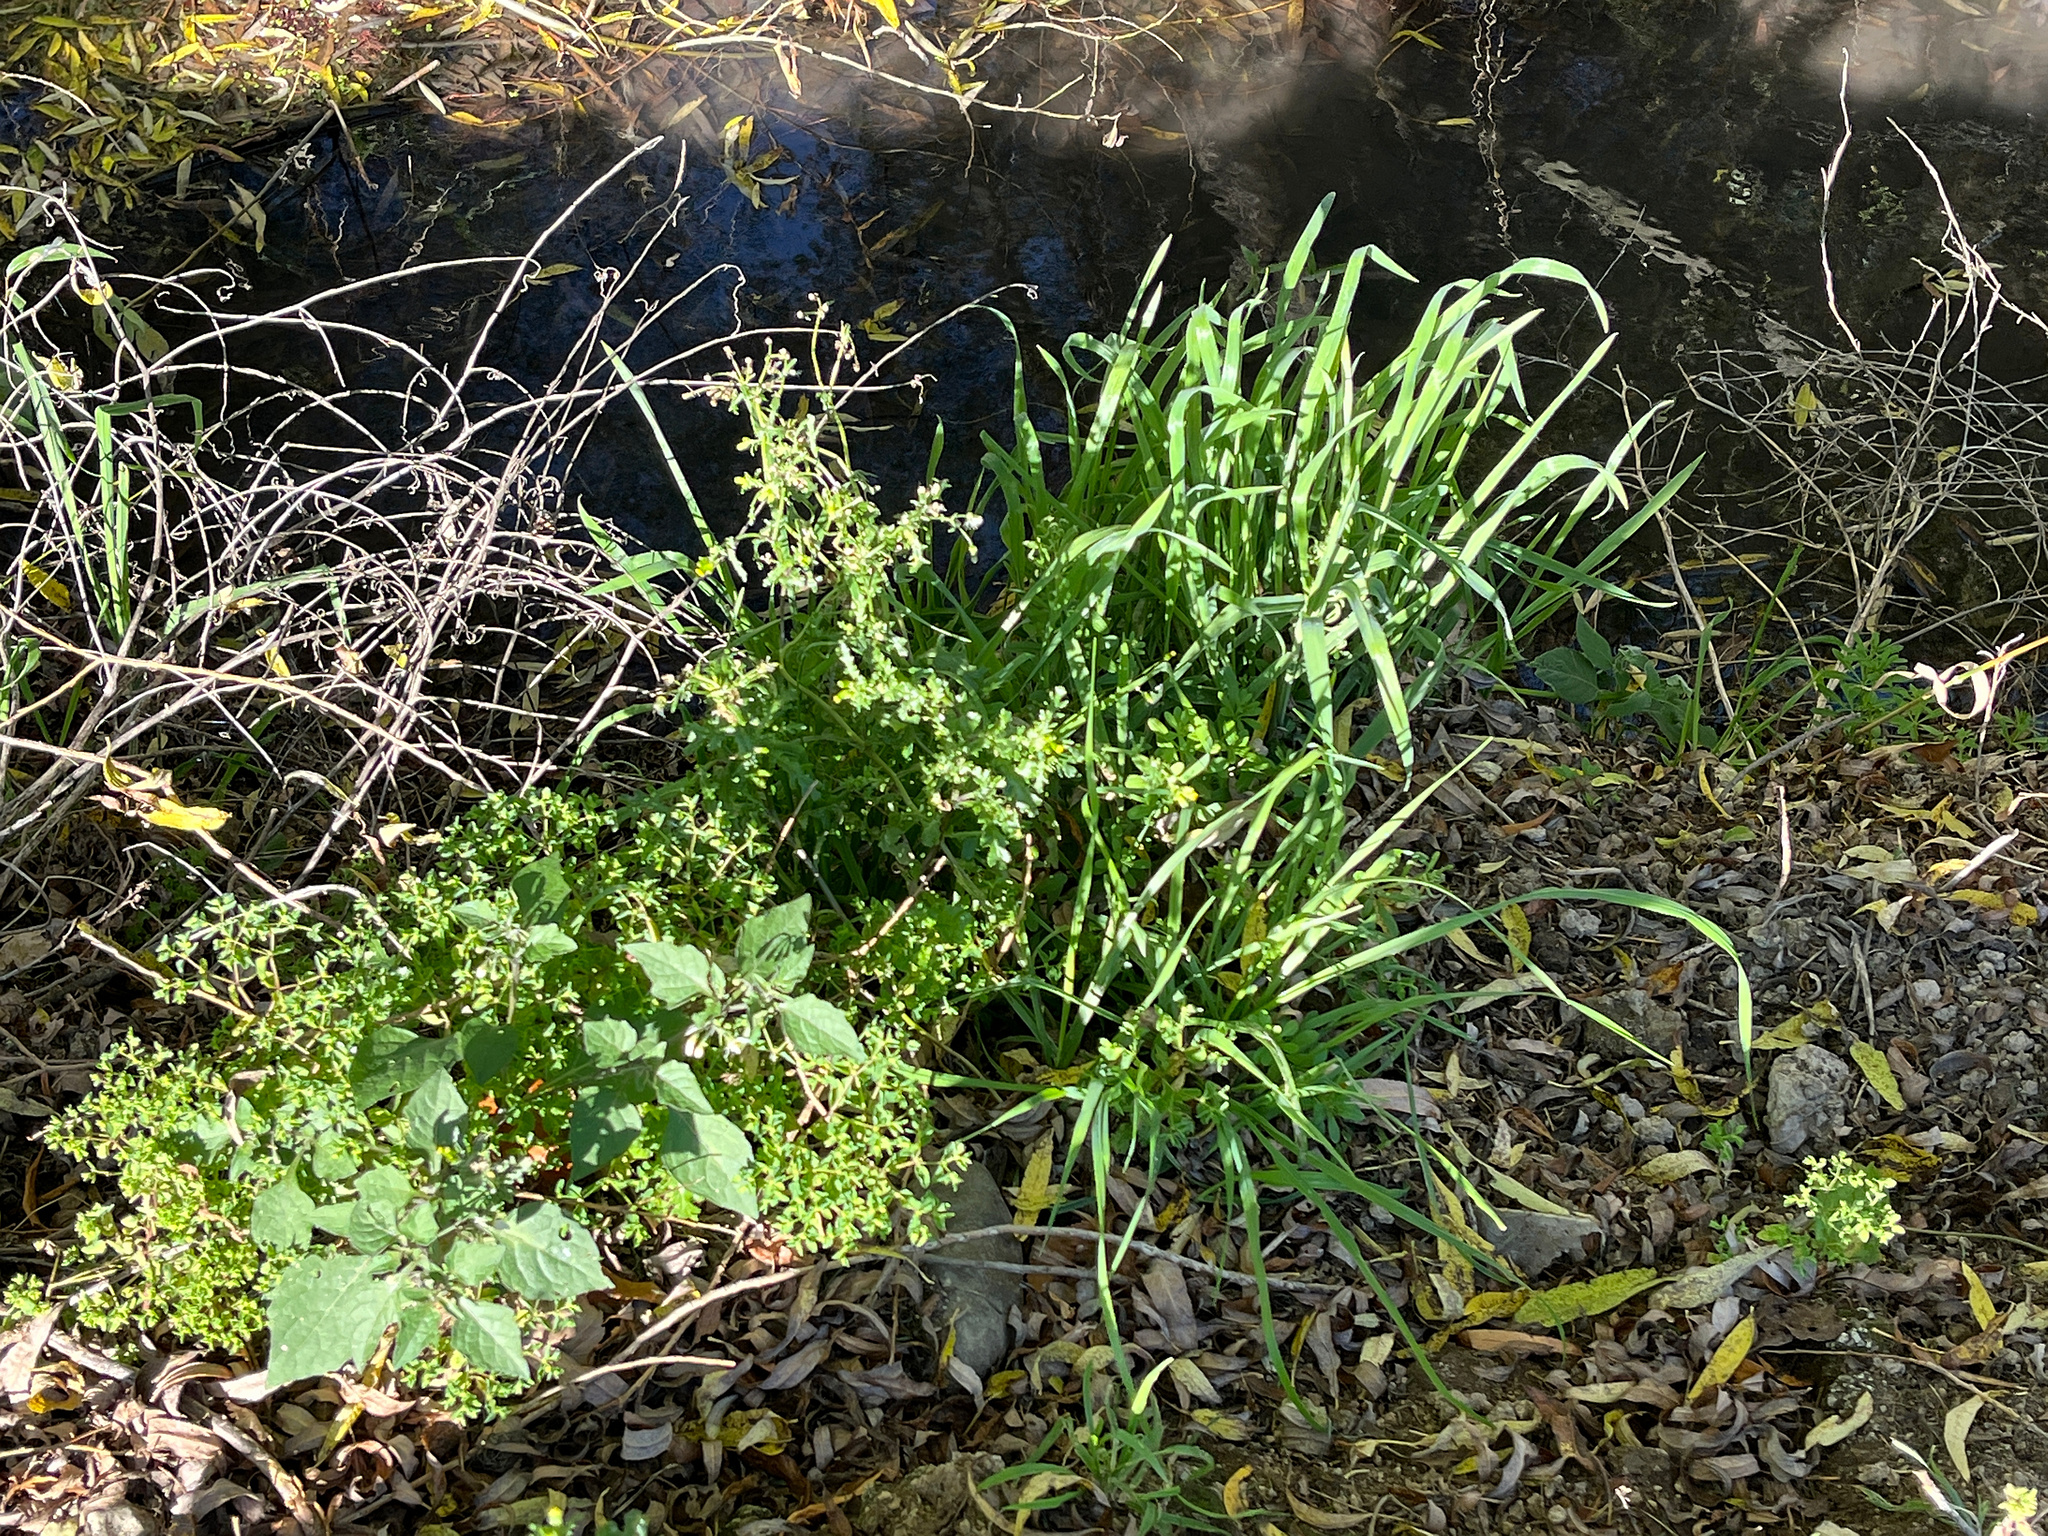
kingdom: Plantae
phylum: Tracheophyta
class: Magnoliopsida
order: Asterales
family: Asteraceae
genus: Senecio
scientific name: Senecio vulgaris
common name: Old-man-in-the-spring
